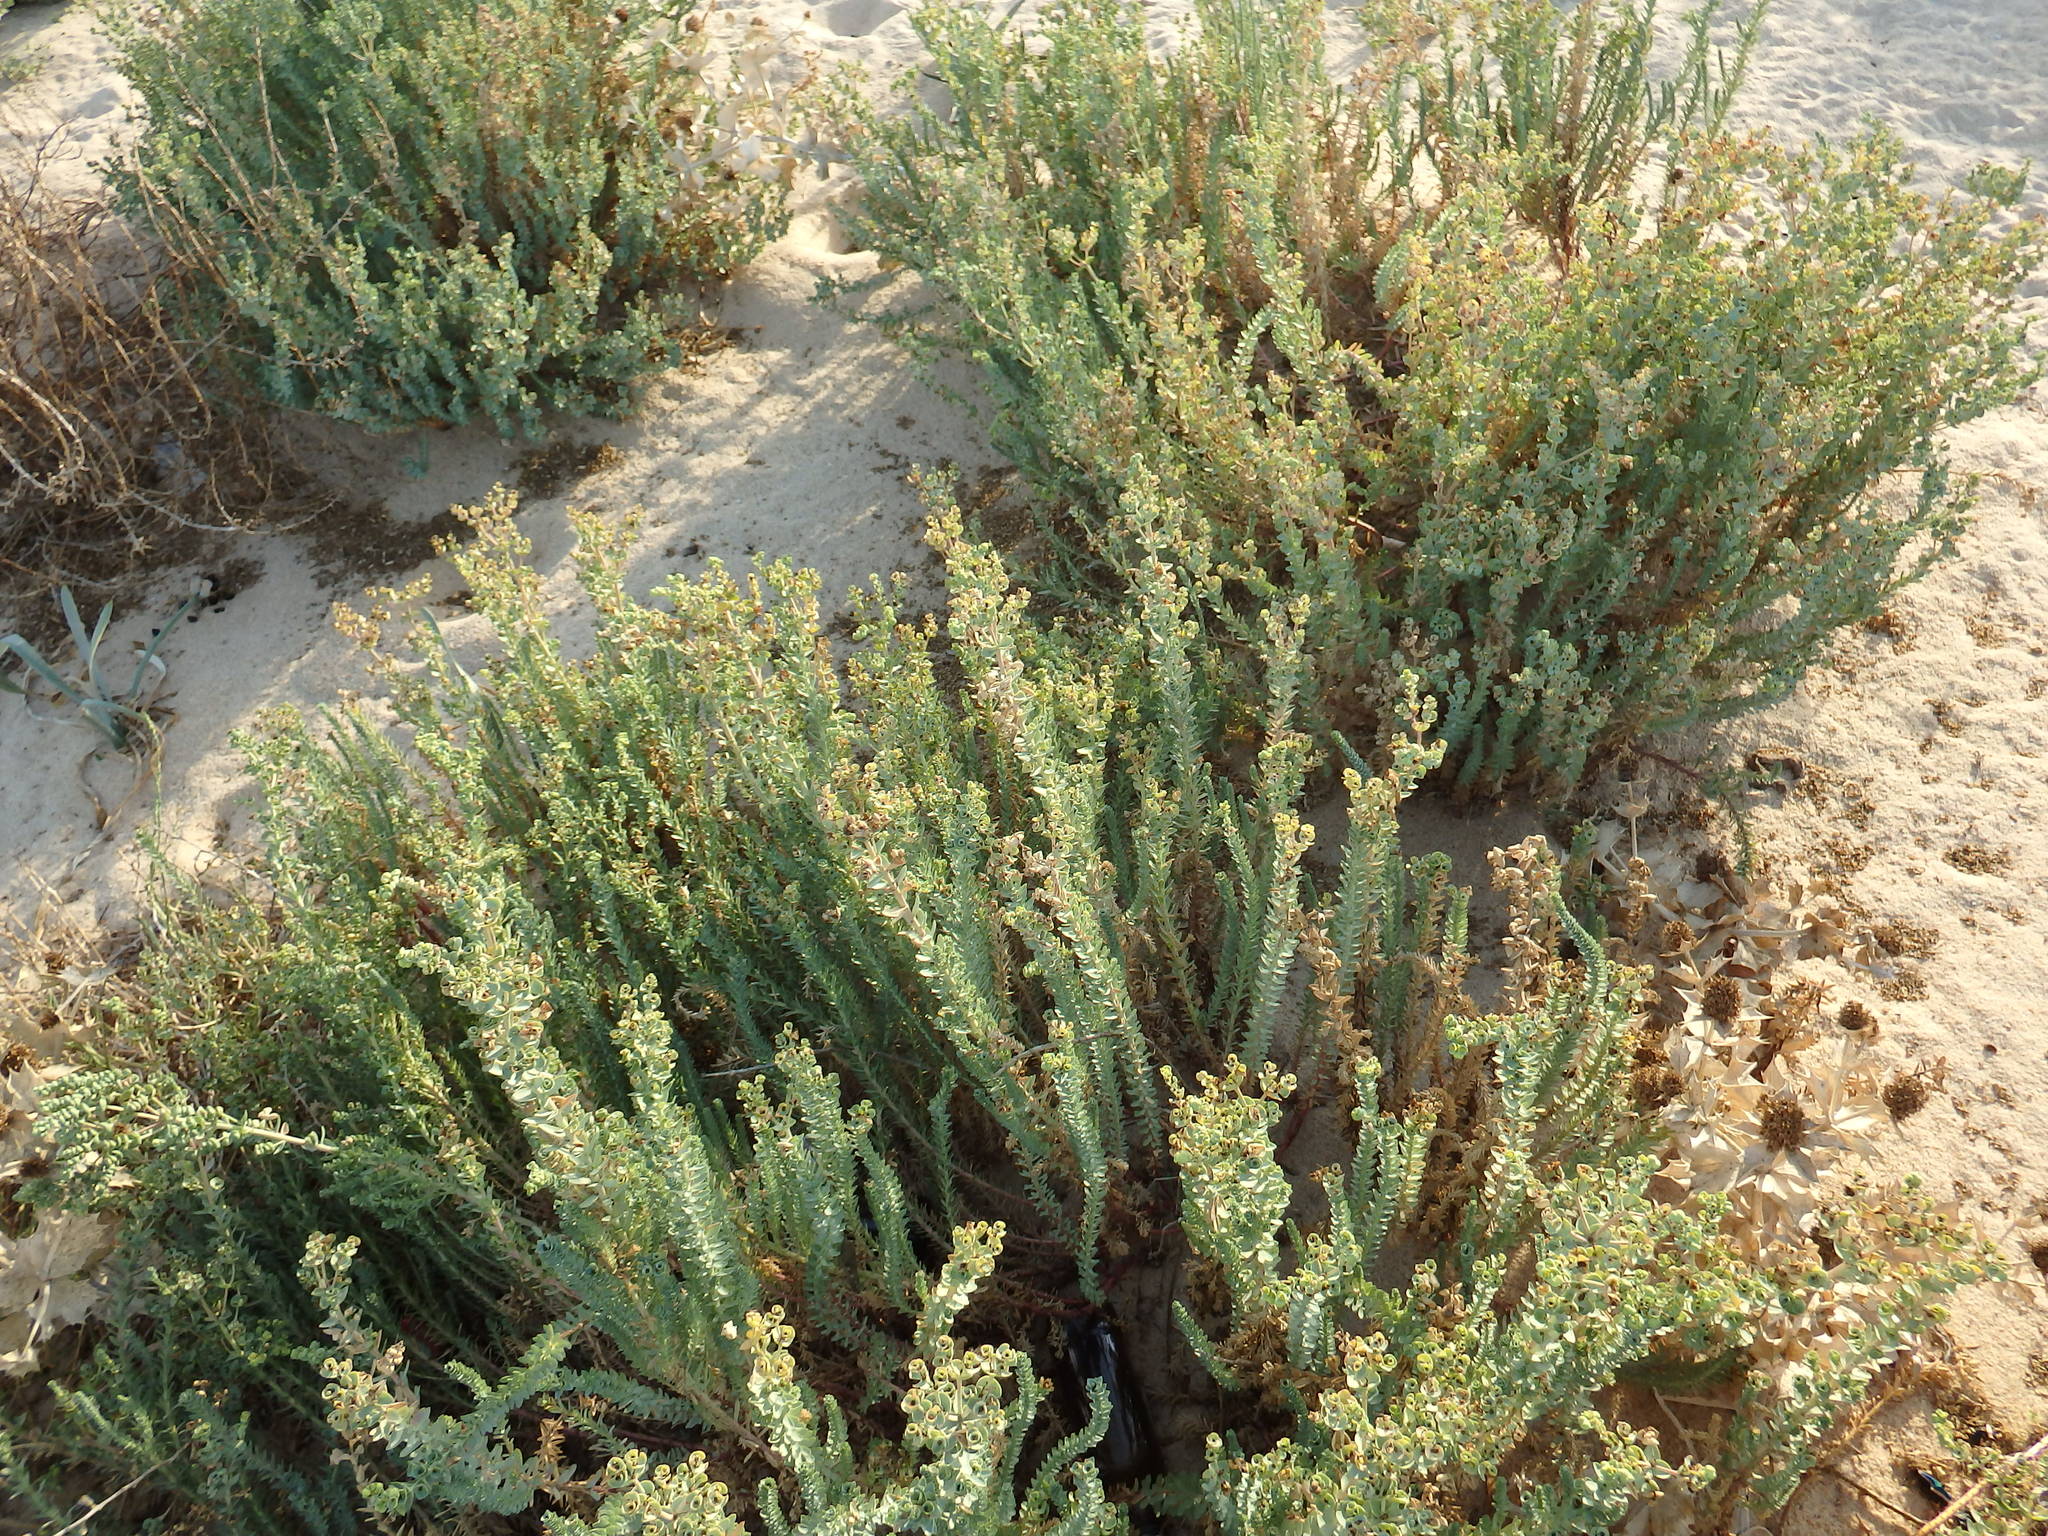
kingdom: Plantae
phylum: Tracheophyta
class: Magnoliopsida
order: Malpighiales
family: Euphorbiaceae
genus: Euphorbia
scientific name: Euphorbia paralias
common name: Sea spurge
